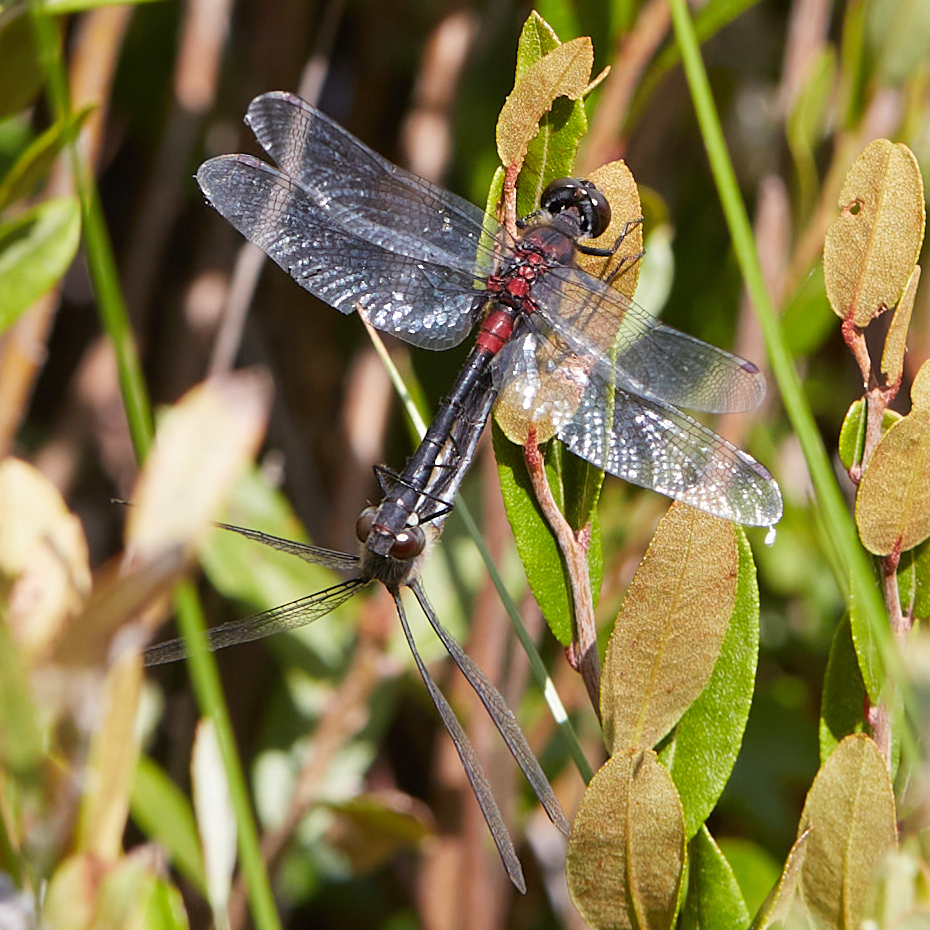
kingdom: Animalia
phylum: Arthropoda
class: Insecta
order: Odonata
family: Libellulidae
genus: Leucorrhinia
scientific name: Leucorrhinia glacialis
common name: Crimson-ringed whiteface
